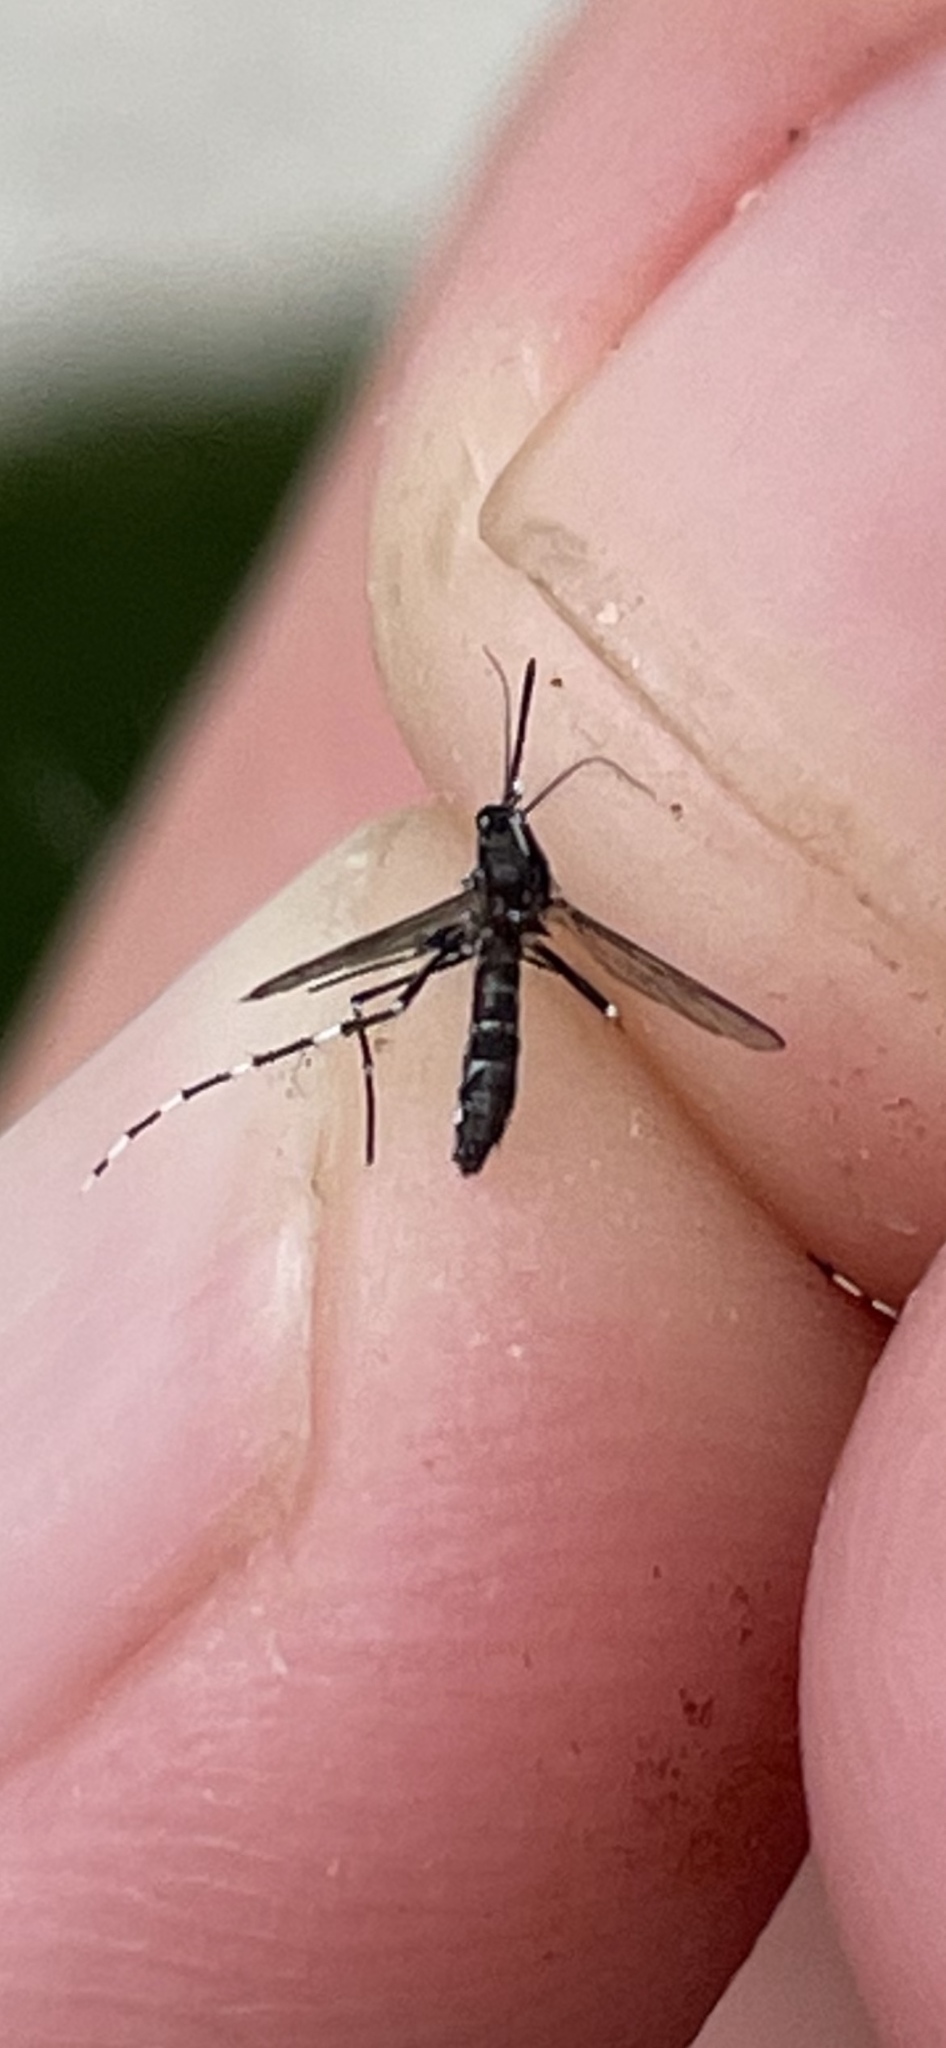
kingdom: Animalia
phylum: Arthropoda
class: Insecta
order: Diptera
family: Culicidae
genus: Aedes
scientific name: Aedes albopictus
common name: Tiger mosquito
